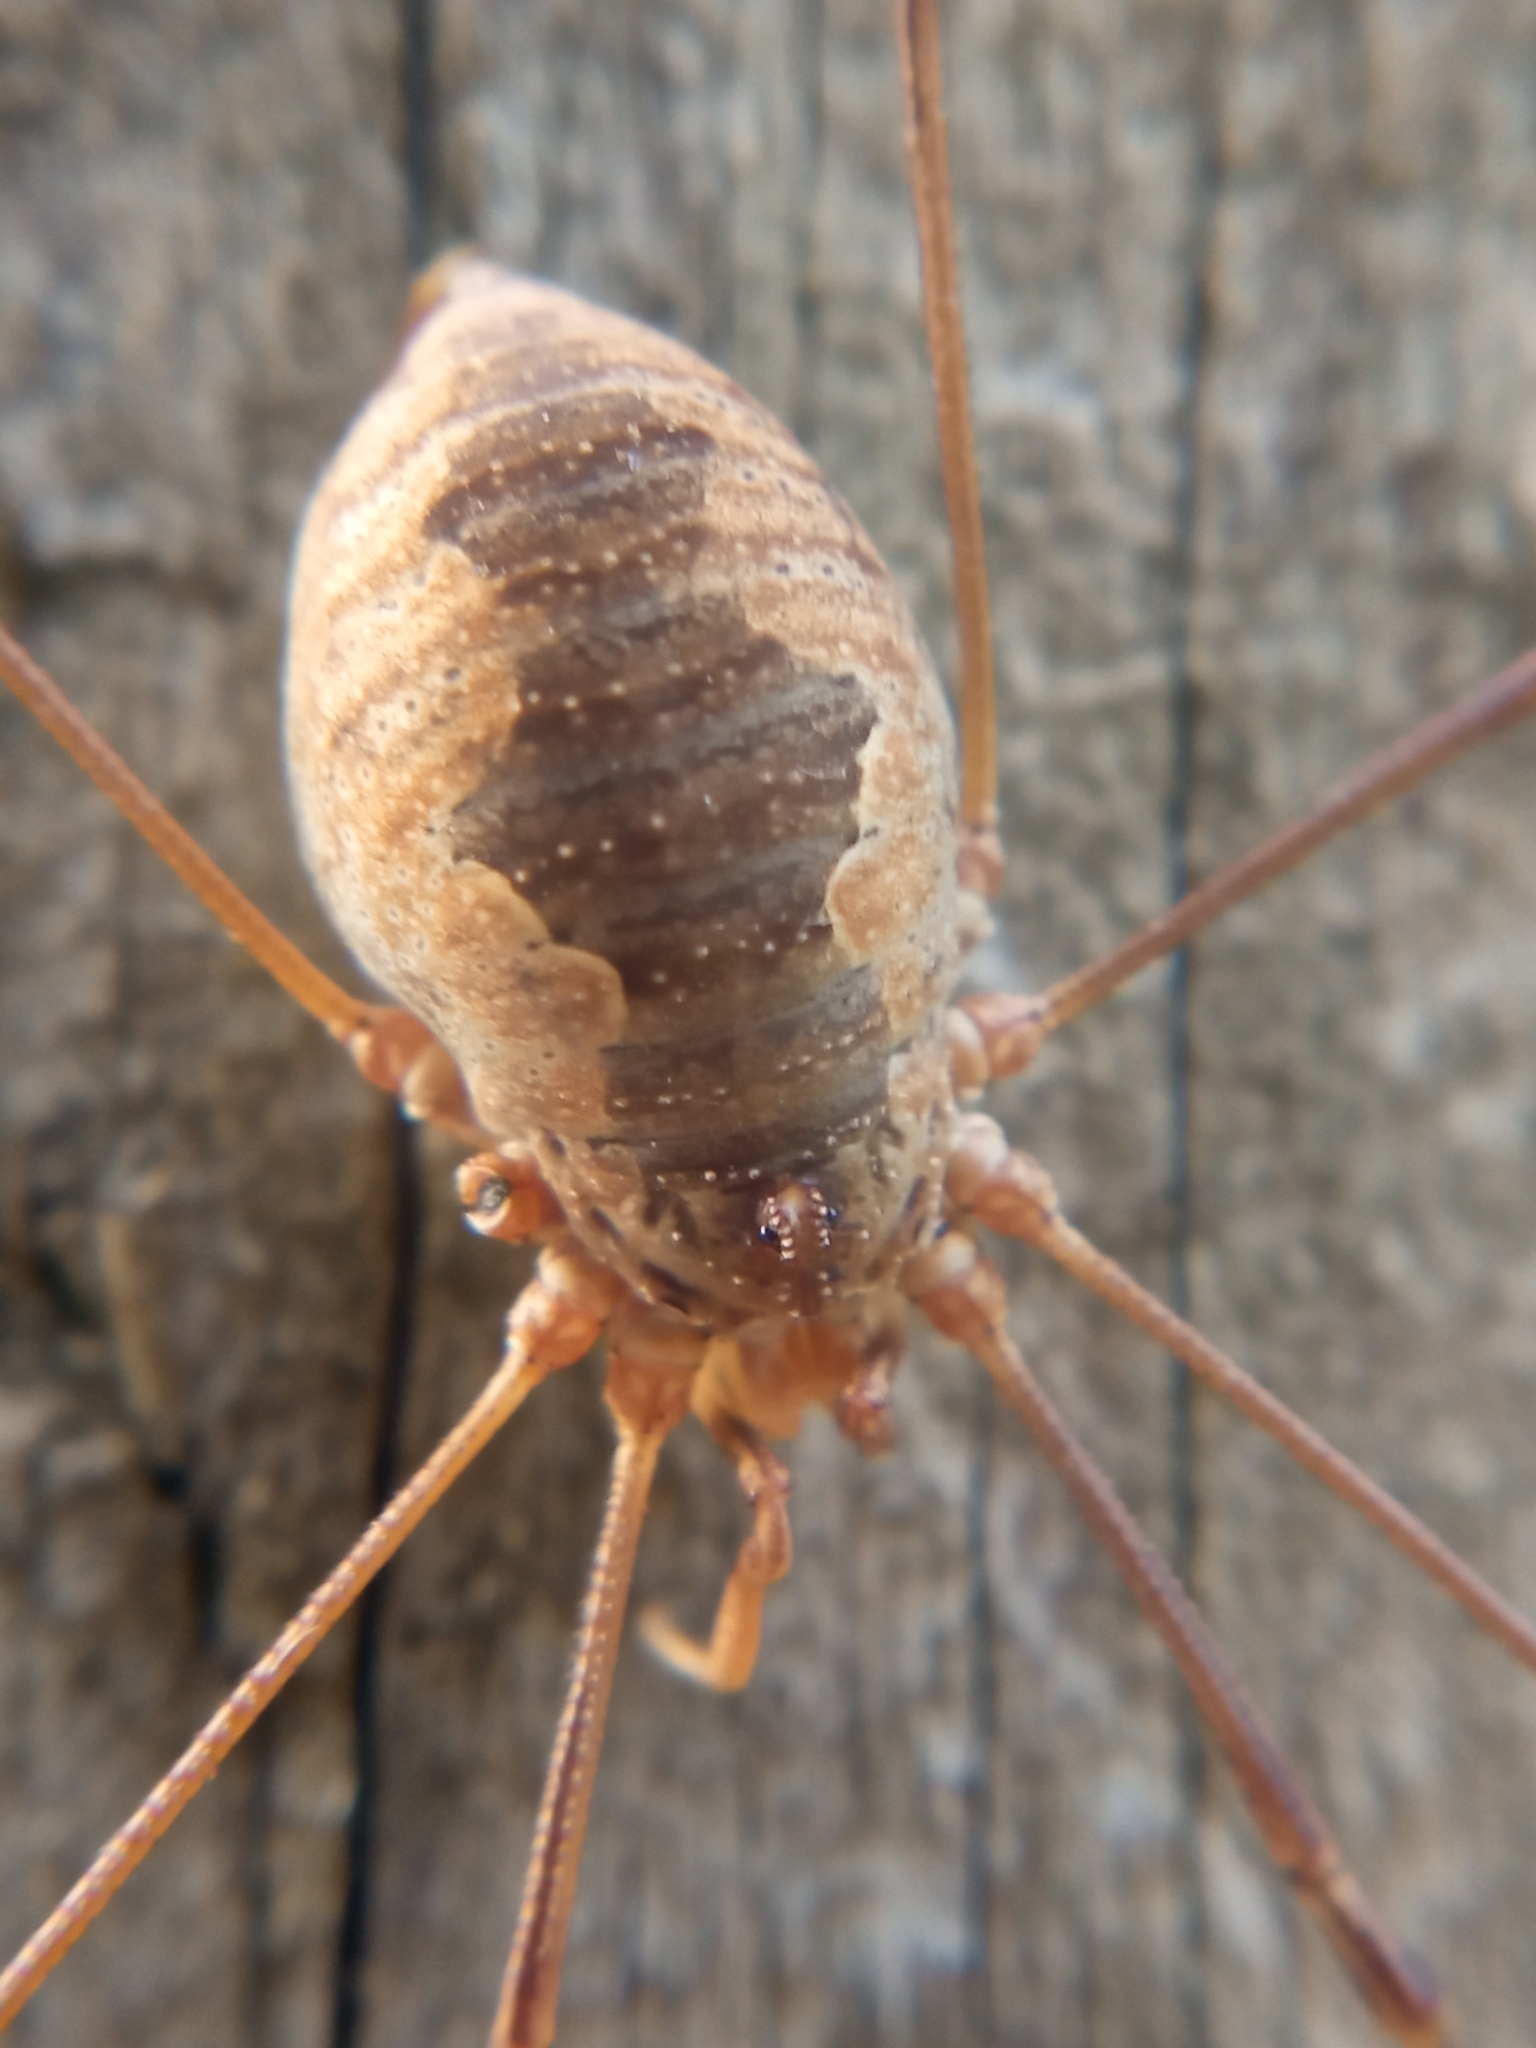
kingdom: Animalia
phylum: Arthropoda
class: Arachnida
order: Opiliones
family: Phalangiidae
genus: Phalangium
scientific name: Phalangium opilio
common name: Daddy longleg
